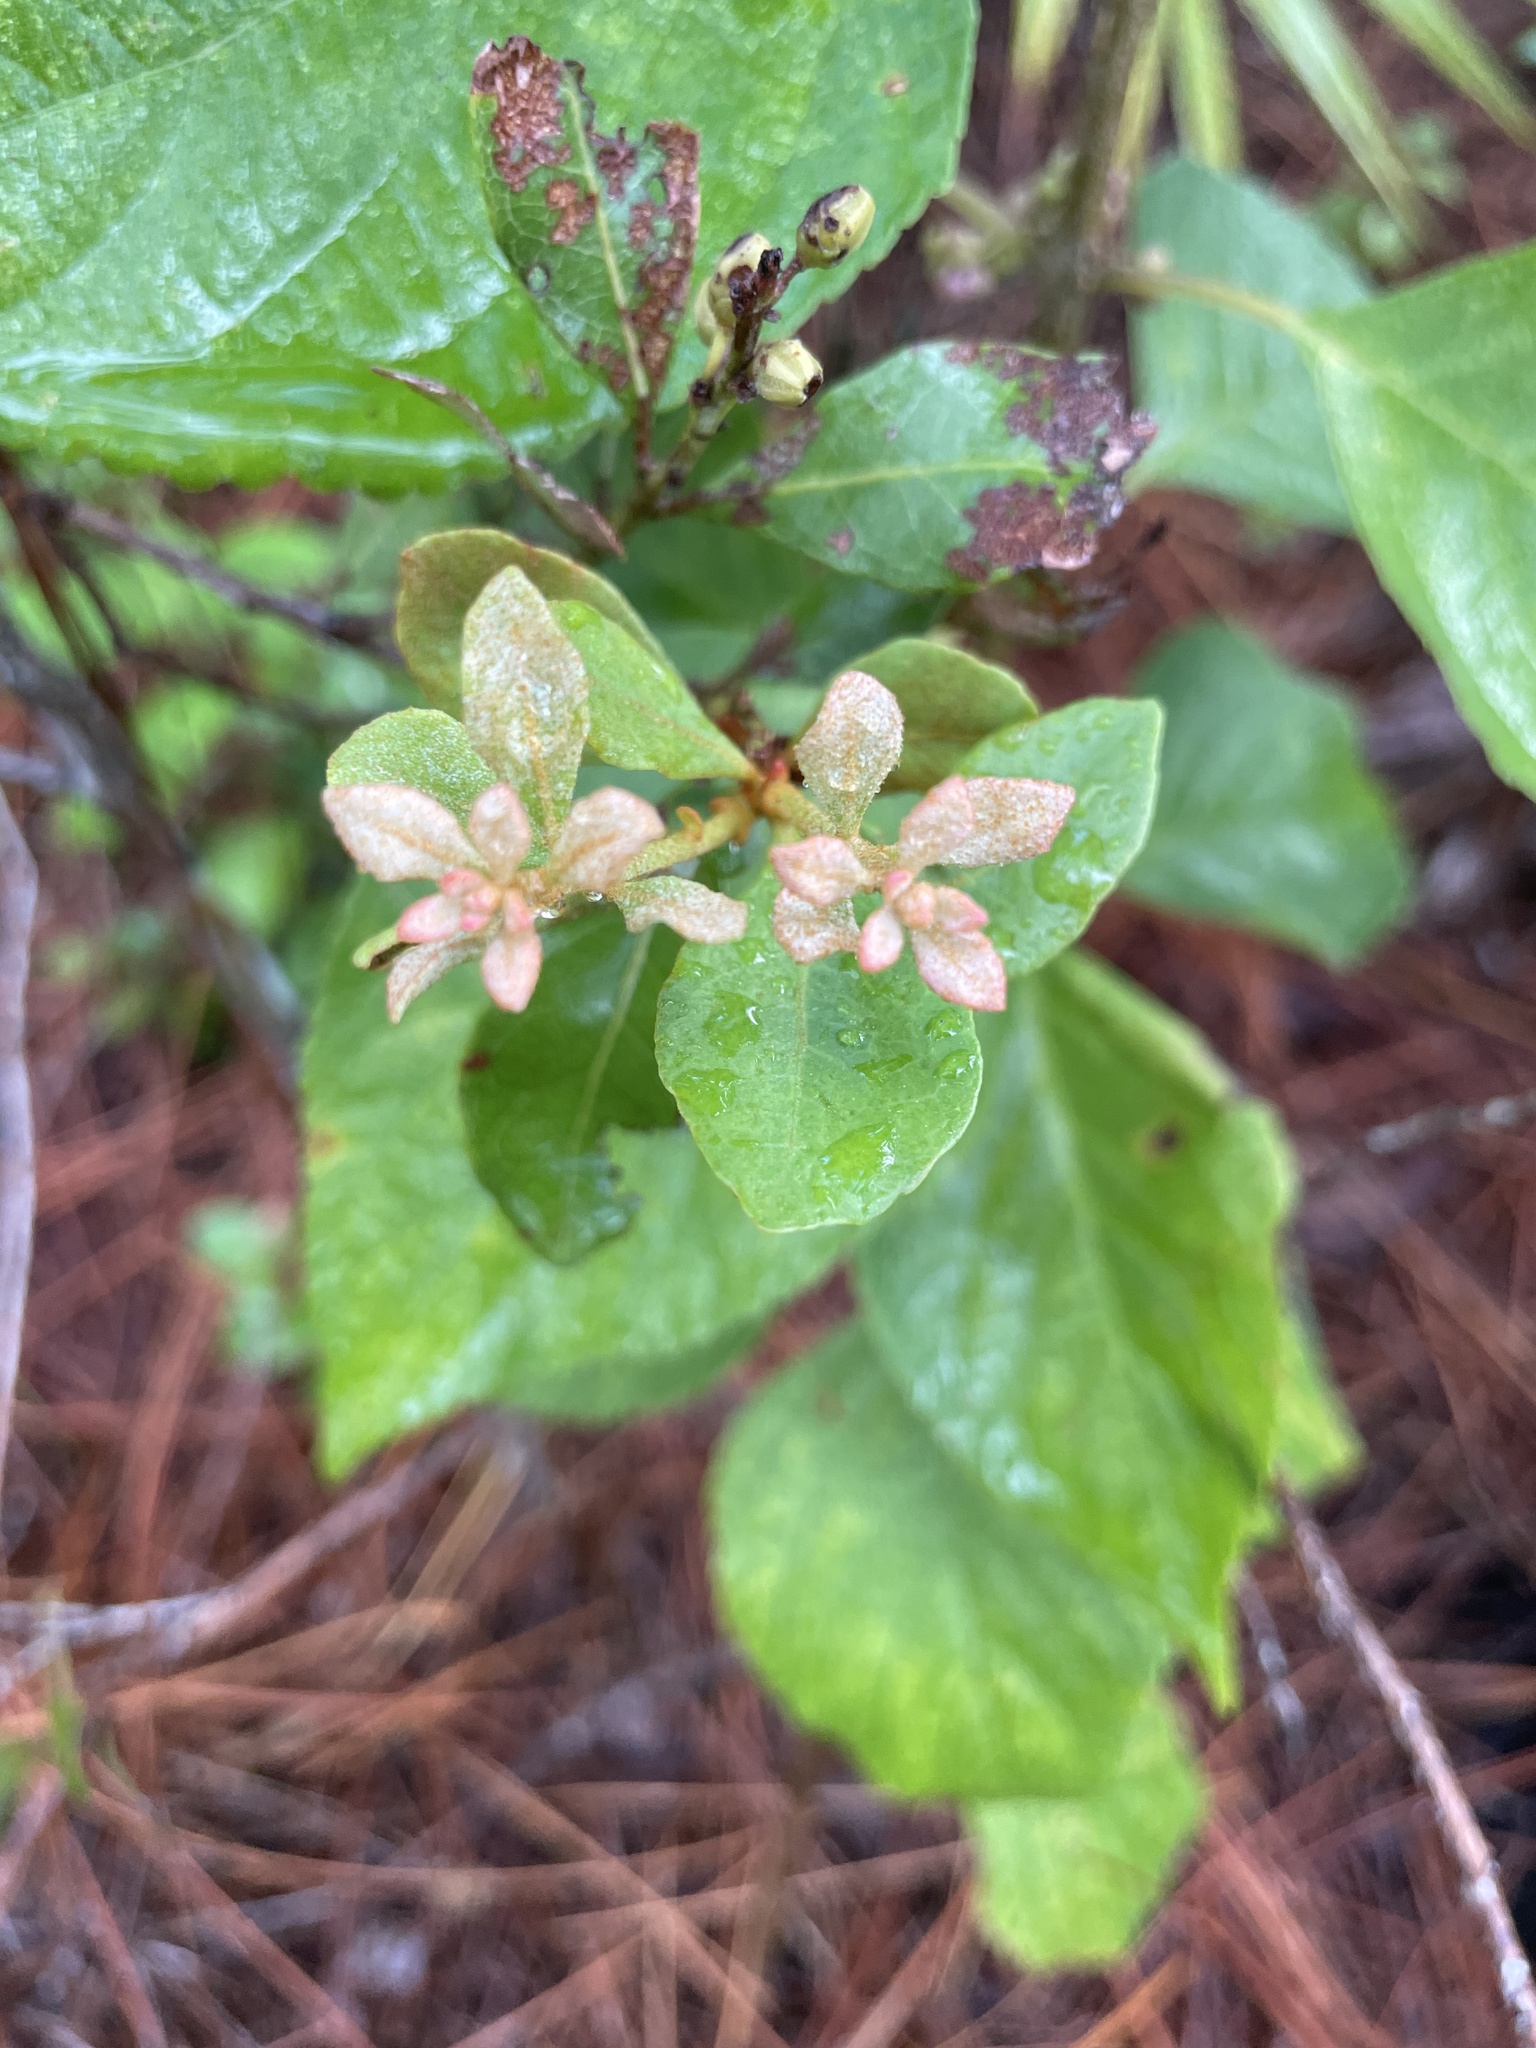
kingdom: Plantae
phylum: Tracheophyta
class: Magnoliopsida
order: Ericales
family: Ericaceae
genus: Lyonia
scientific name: Lyonia fruticosa
